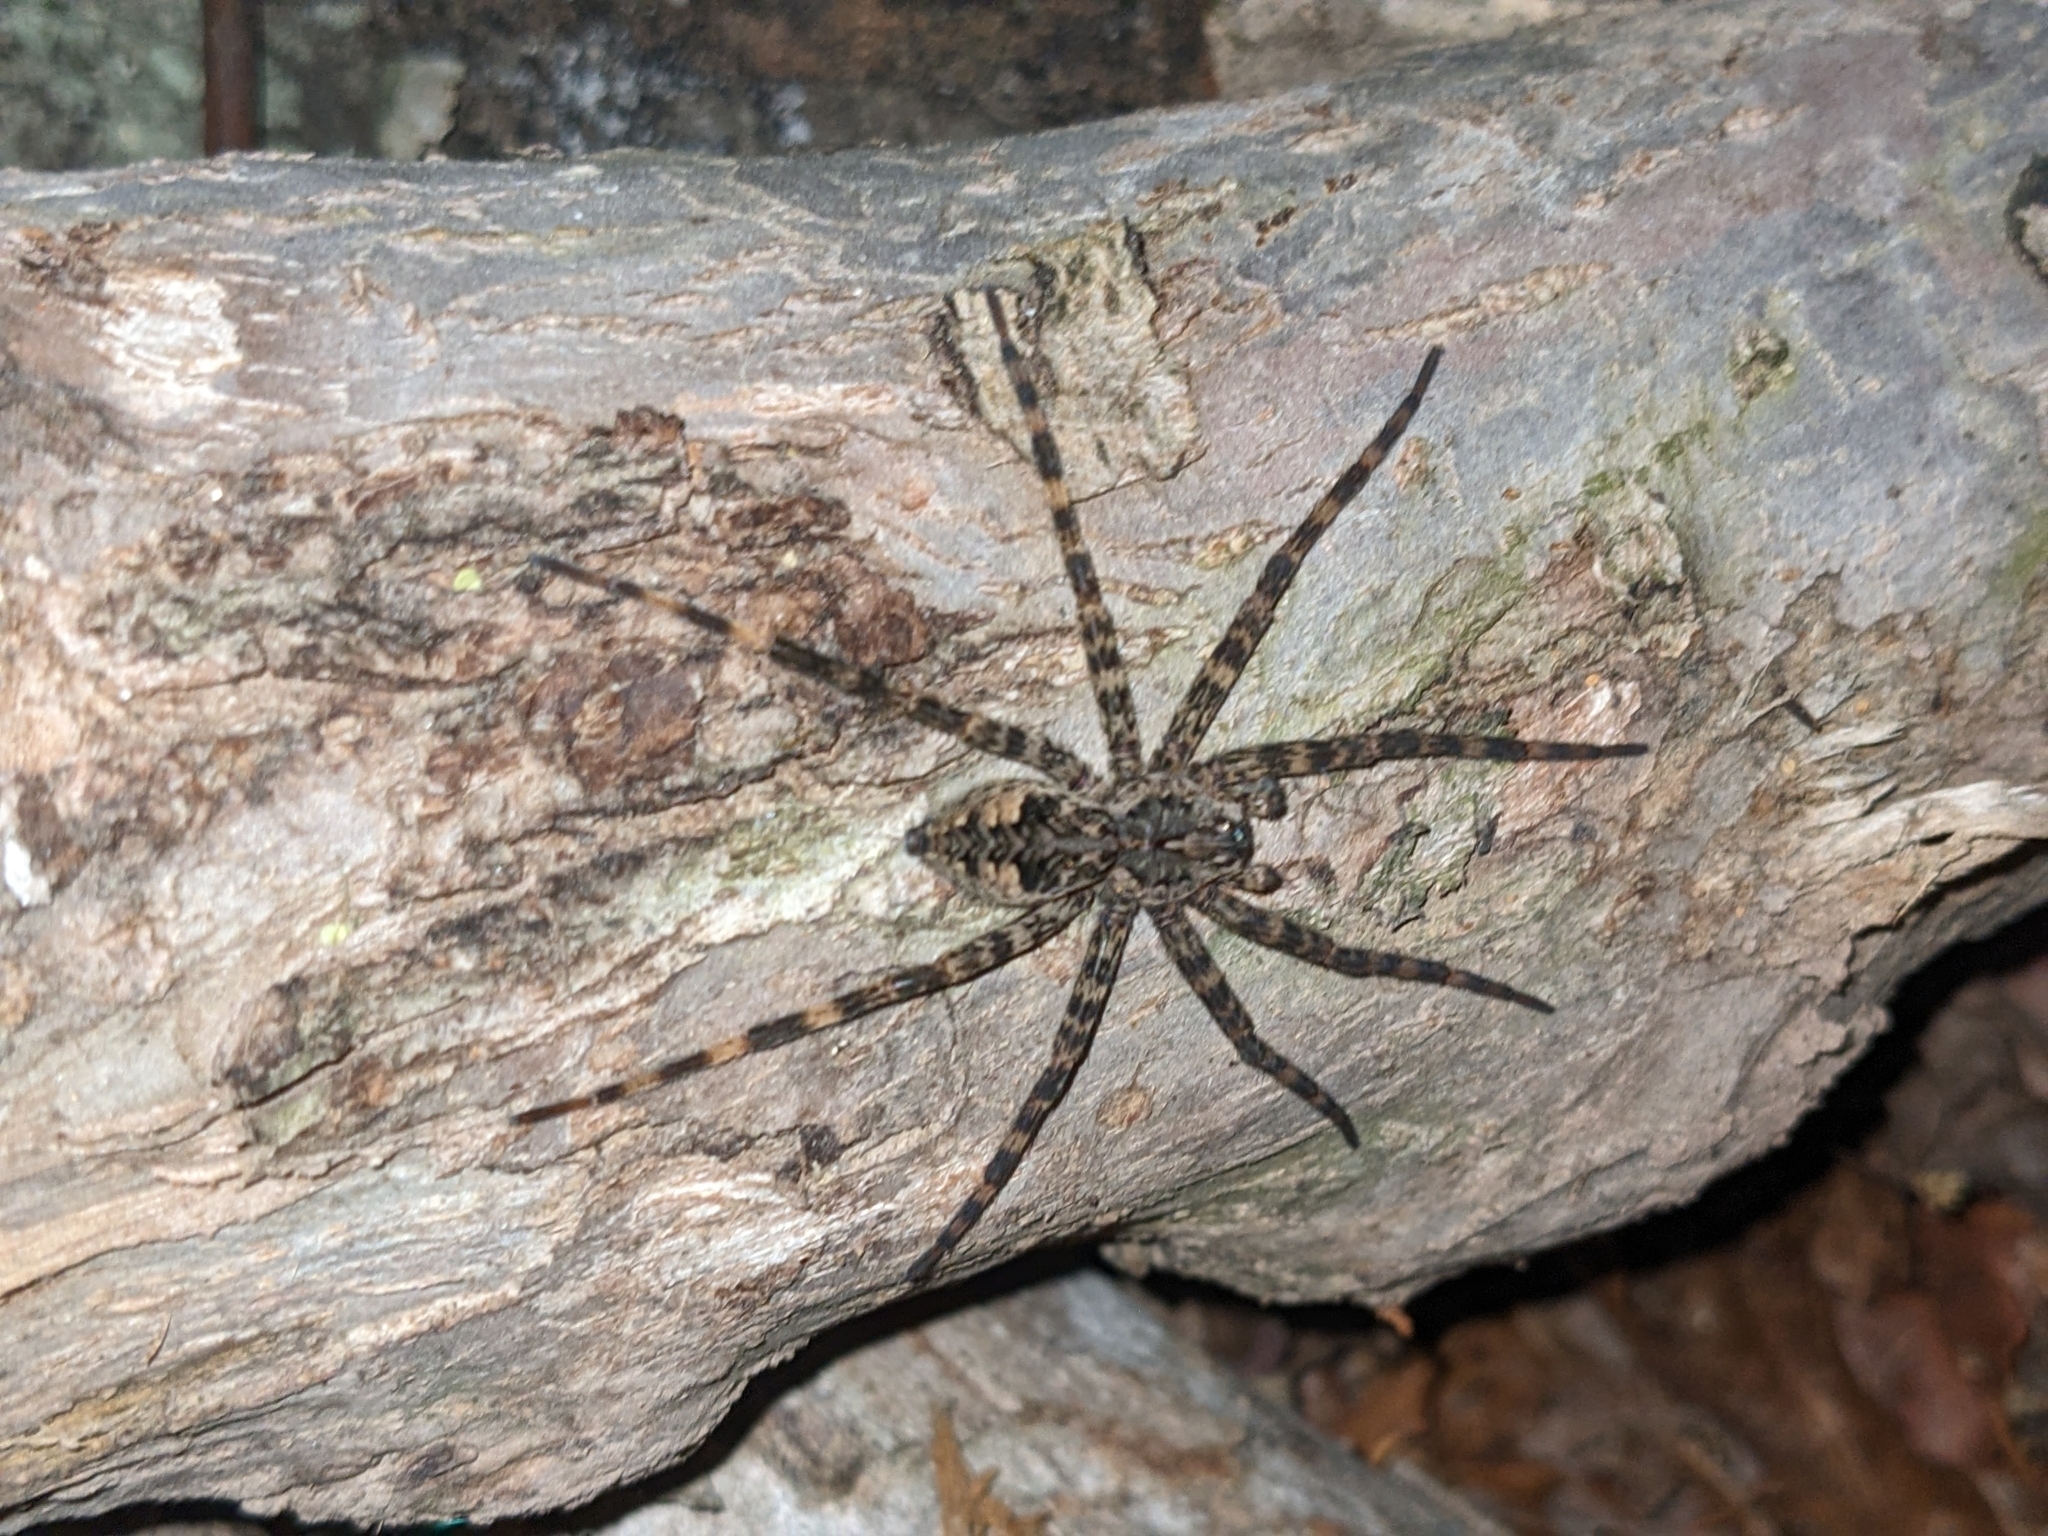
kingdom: Animalia
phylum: Arthropoda
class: Arachnida
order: Araneae
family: Pisauridae
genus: Dolomedes
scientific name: Dolomedes tenebrosus
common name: Dark fishing spider
